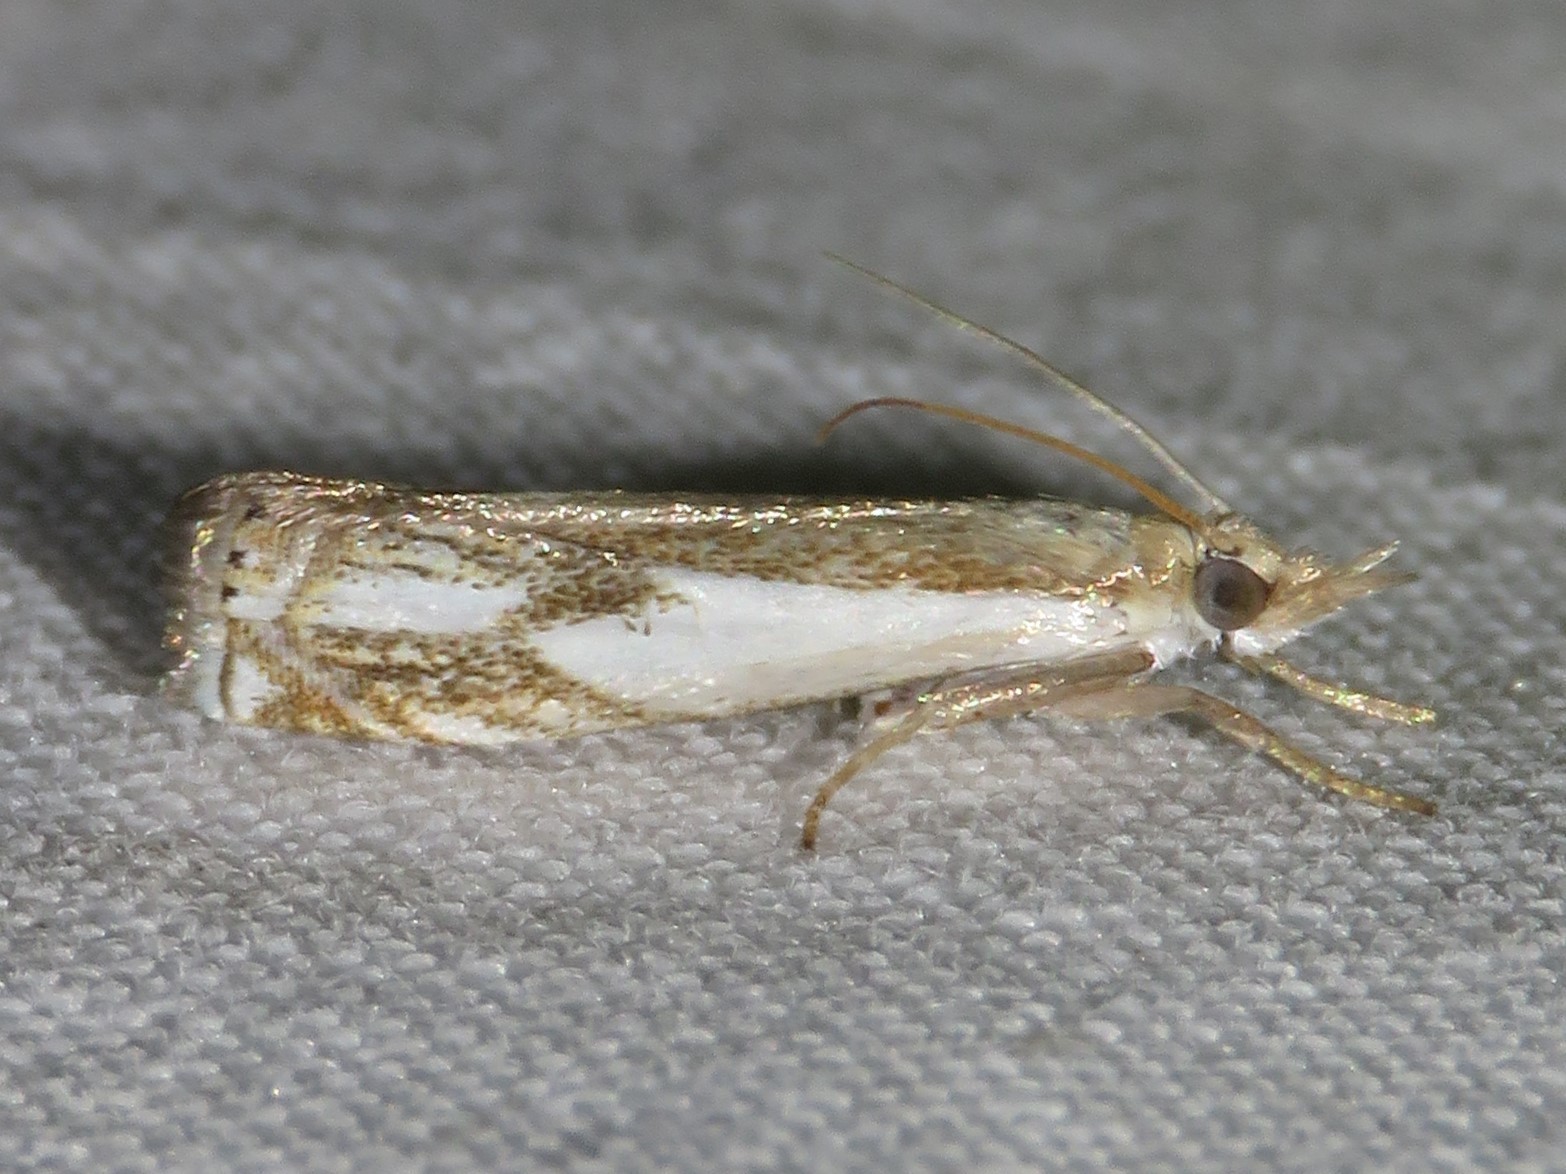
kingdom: Animalia
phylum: Arthropoda
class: Insecta
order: Lepidoptera
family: Crambidae
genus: Crambus
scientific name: Crambus agitatellus
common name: Double-banded grass-veneer
